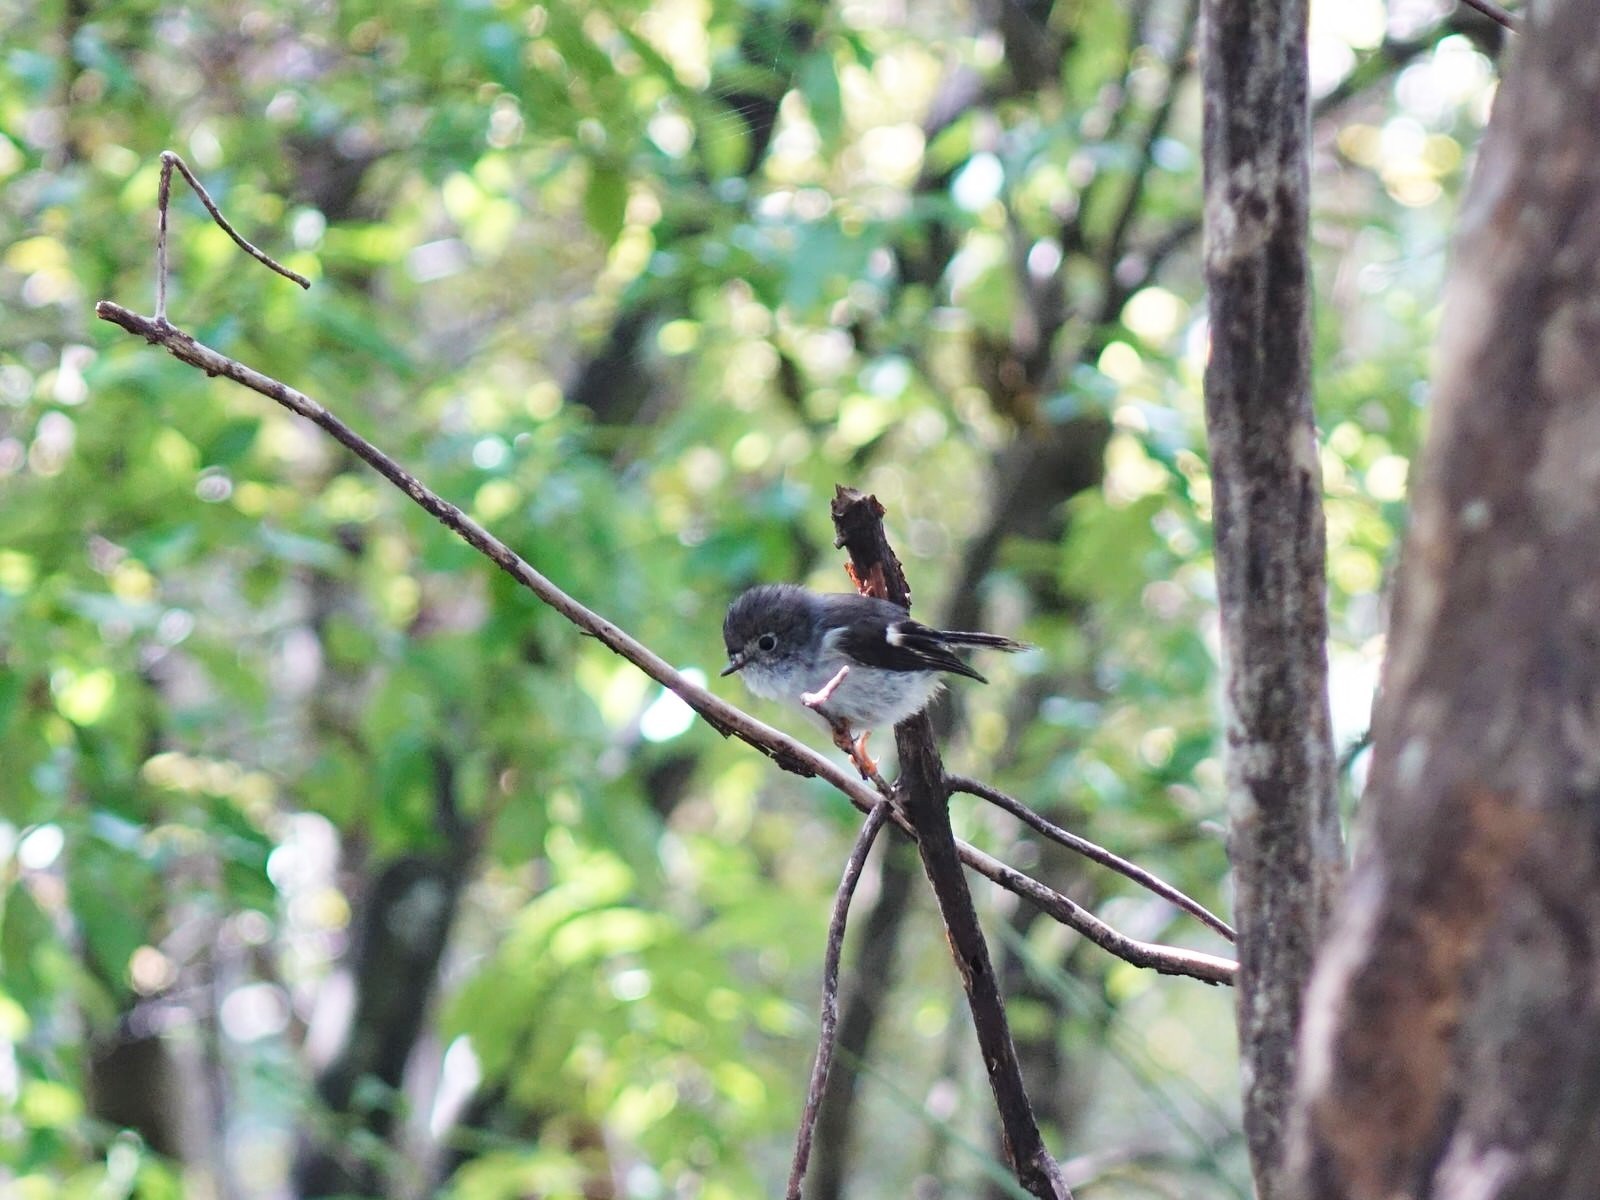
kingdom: Animalia
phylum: Chordata
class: Aves
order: Passeriformes
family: Petroicidae
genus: Petroica
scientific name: Petroica macrocephala
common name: Tomtit
